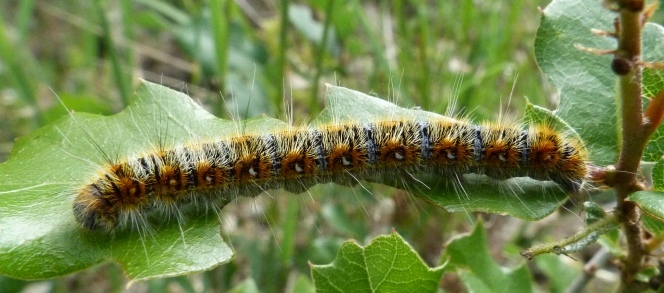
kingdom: Animalia
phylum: Arthropoda
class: Insecta
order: Lepidoptera
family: Lasiocampidae
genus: Psilogaster
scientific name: Psilogaster loti
